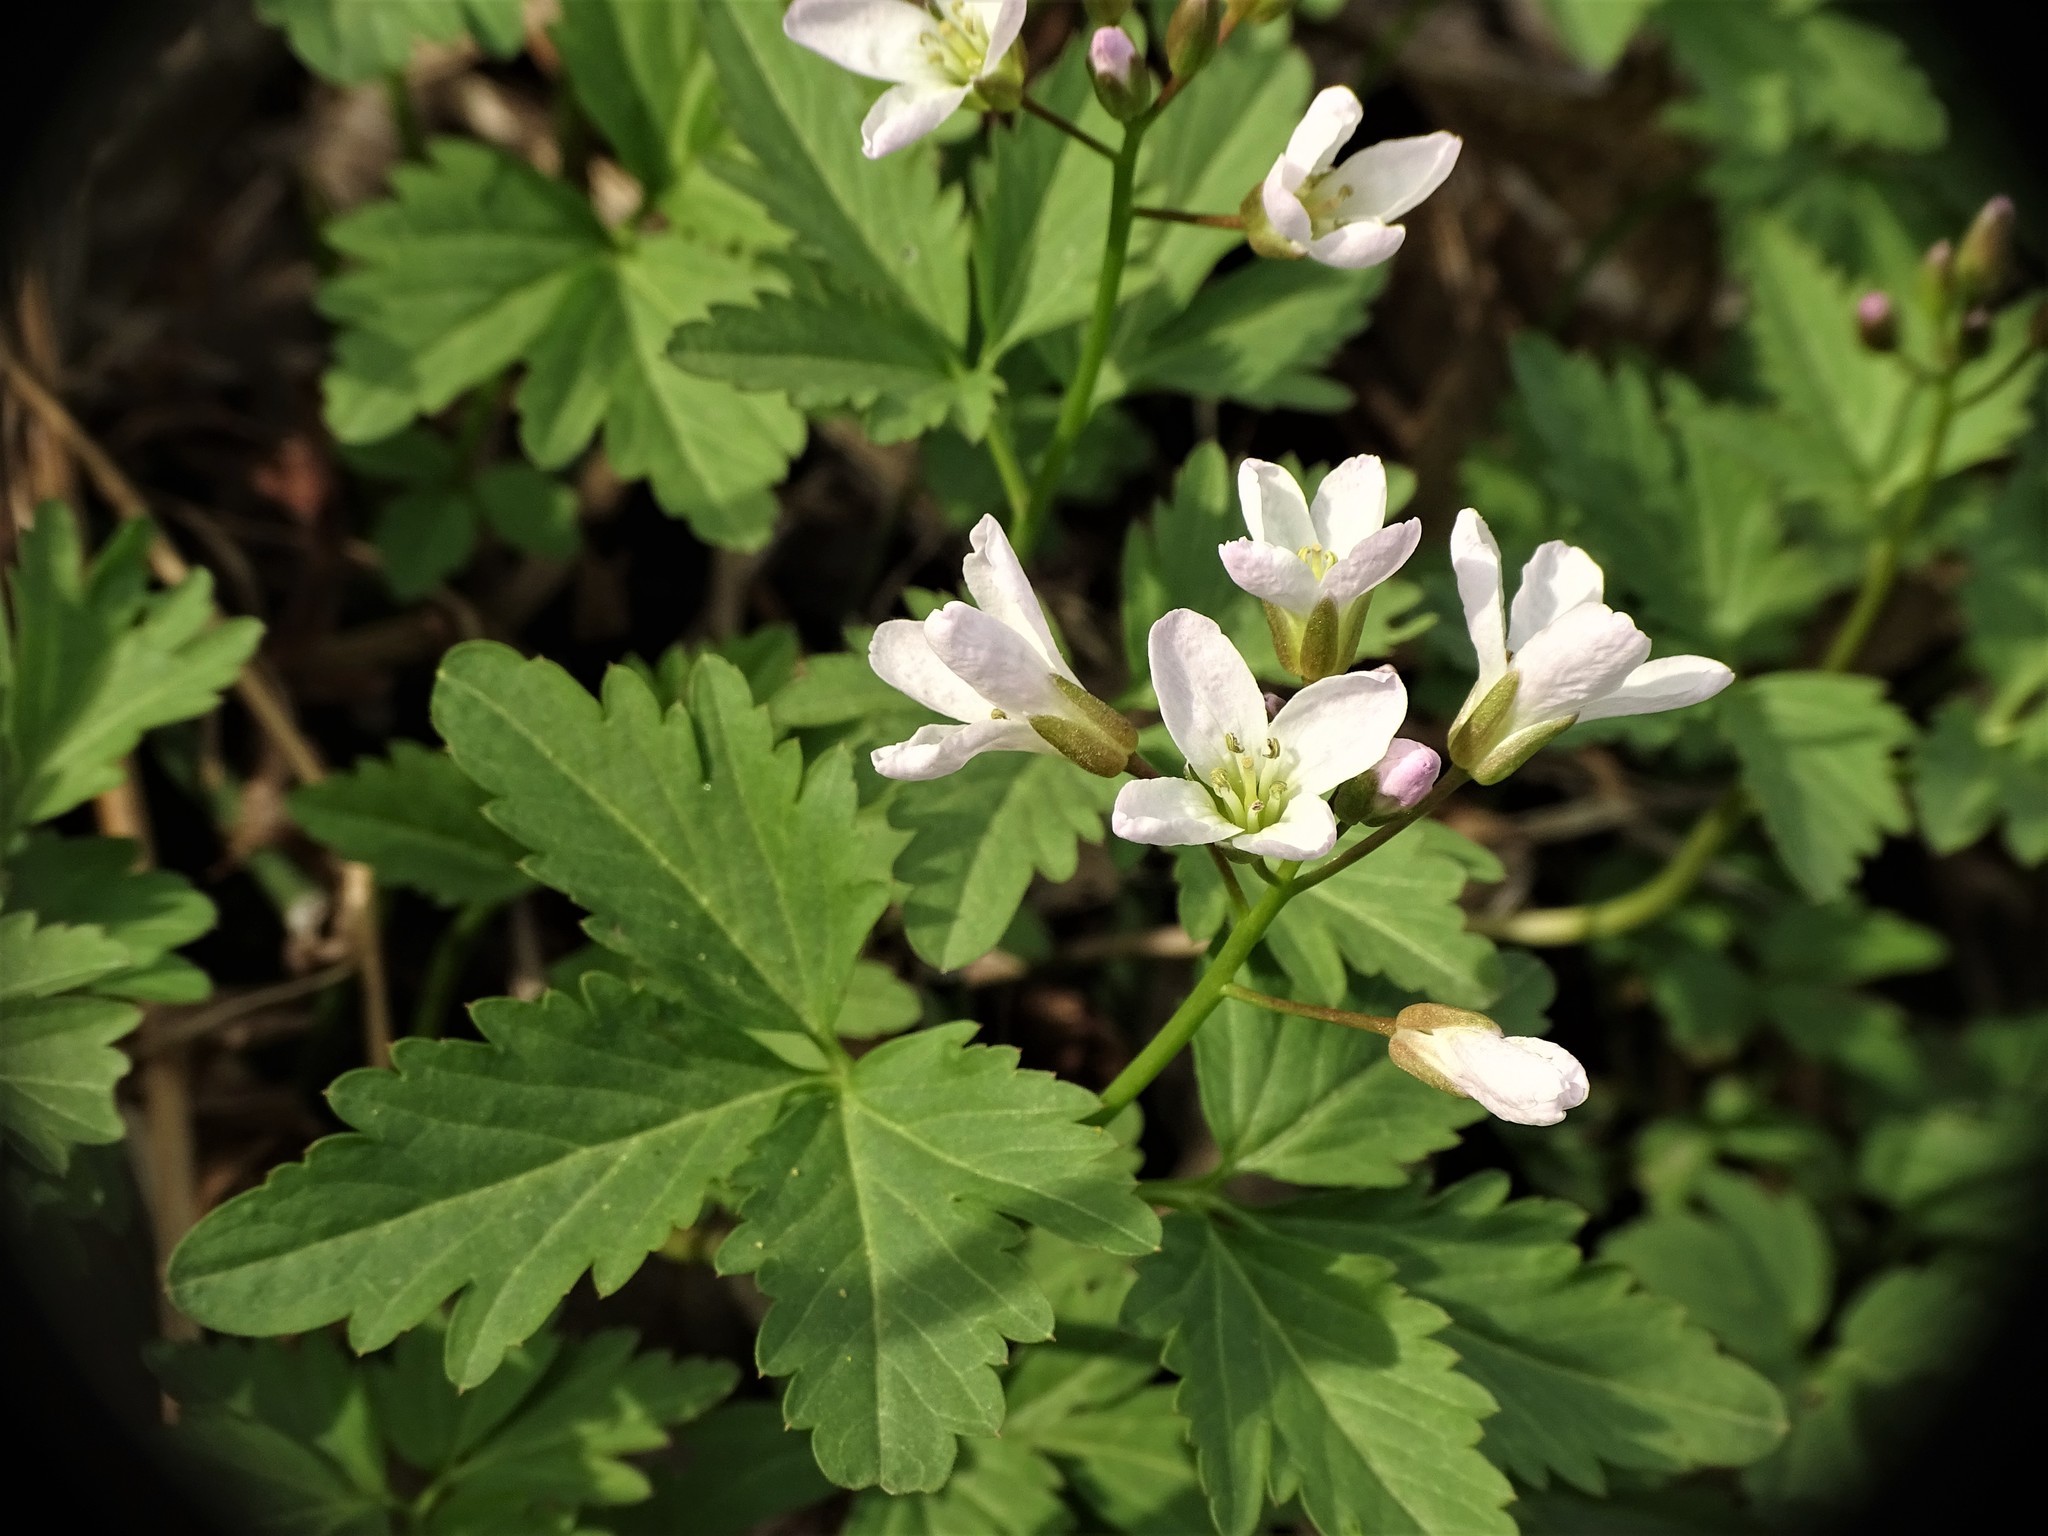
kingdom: Plantae
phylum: Tracheophyta
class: Magnoliopsida
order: Brassicales
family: Brassicaceae
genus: Cardamine
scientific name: Cardamine diphylla
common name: Broad-leaved toothwort
